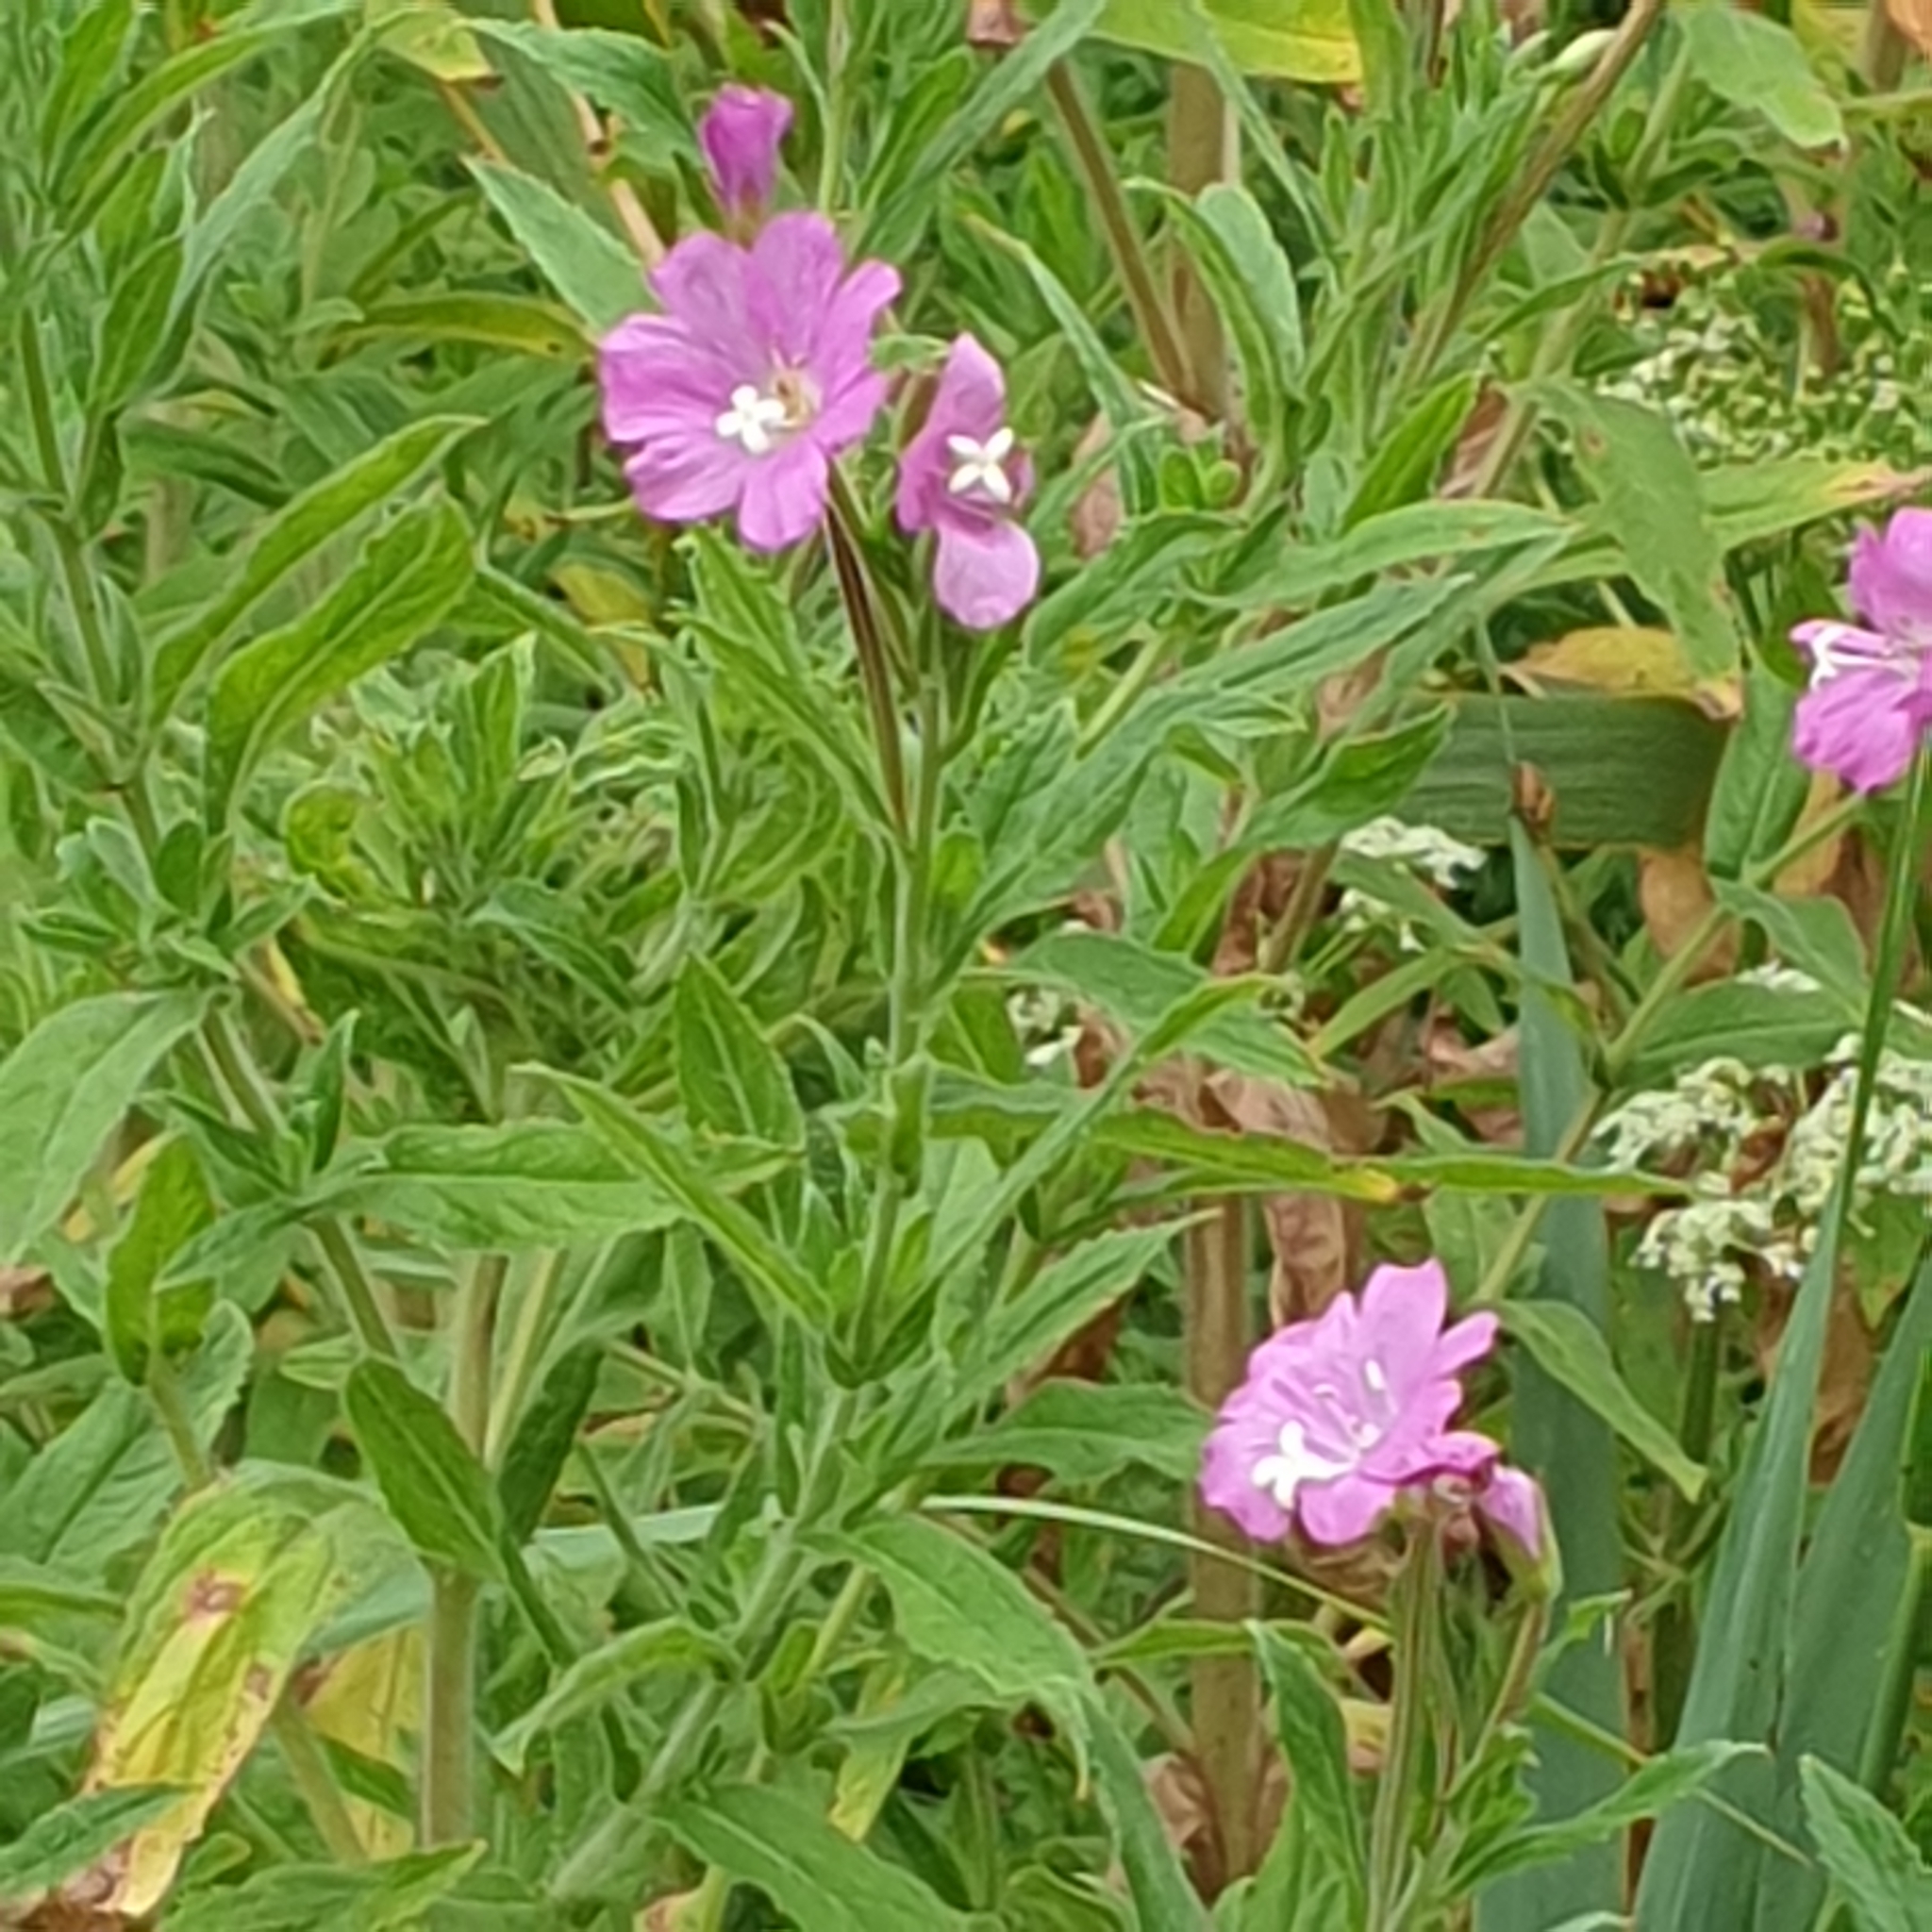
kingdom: Plantae
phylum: Tracheophyta
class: Magnoliopsida
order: Myrtales
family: Onagraceae
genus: Epilobium
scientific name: Epilobium hirsutum
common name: Great willowherb
